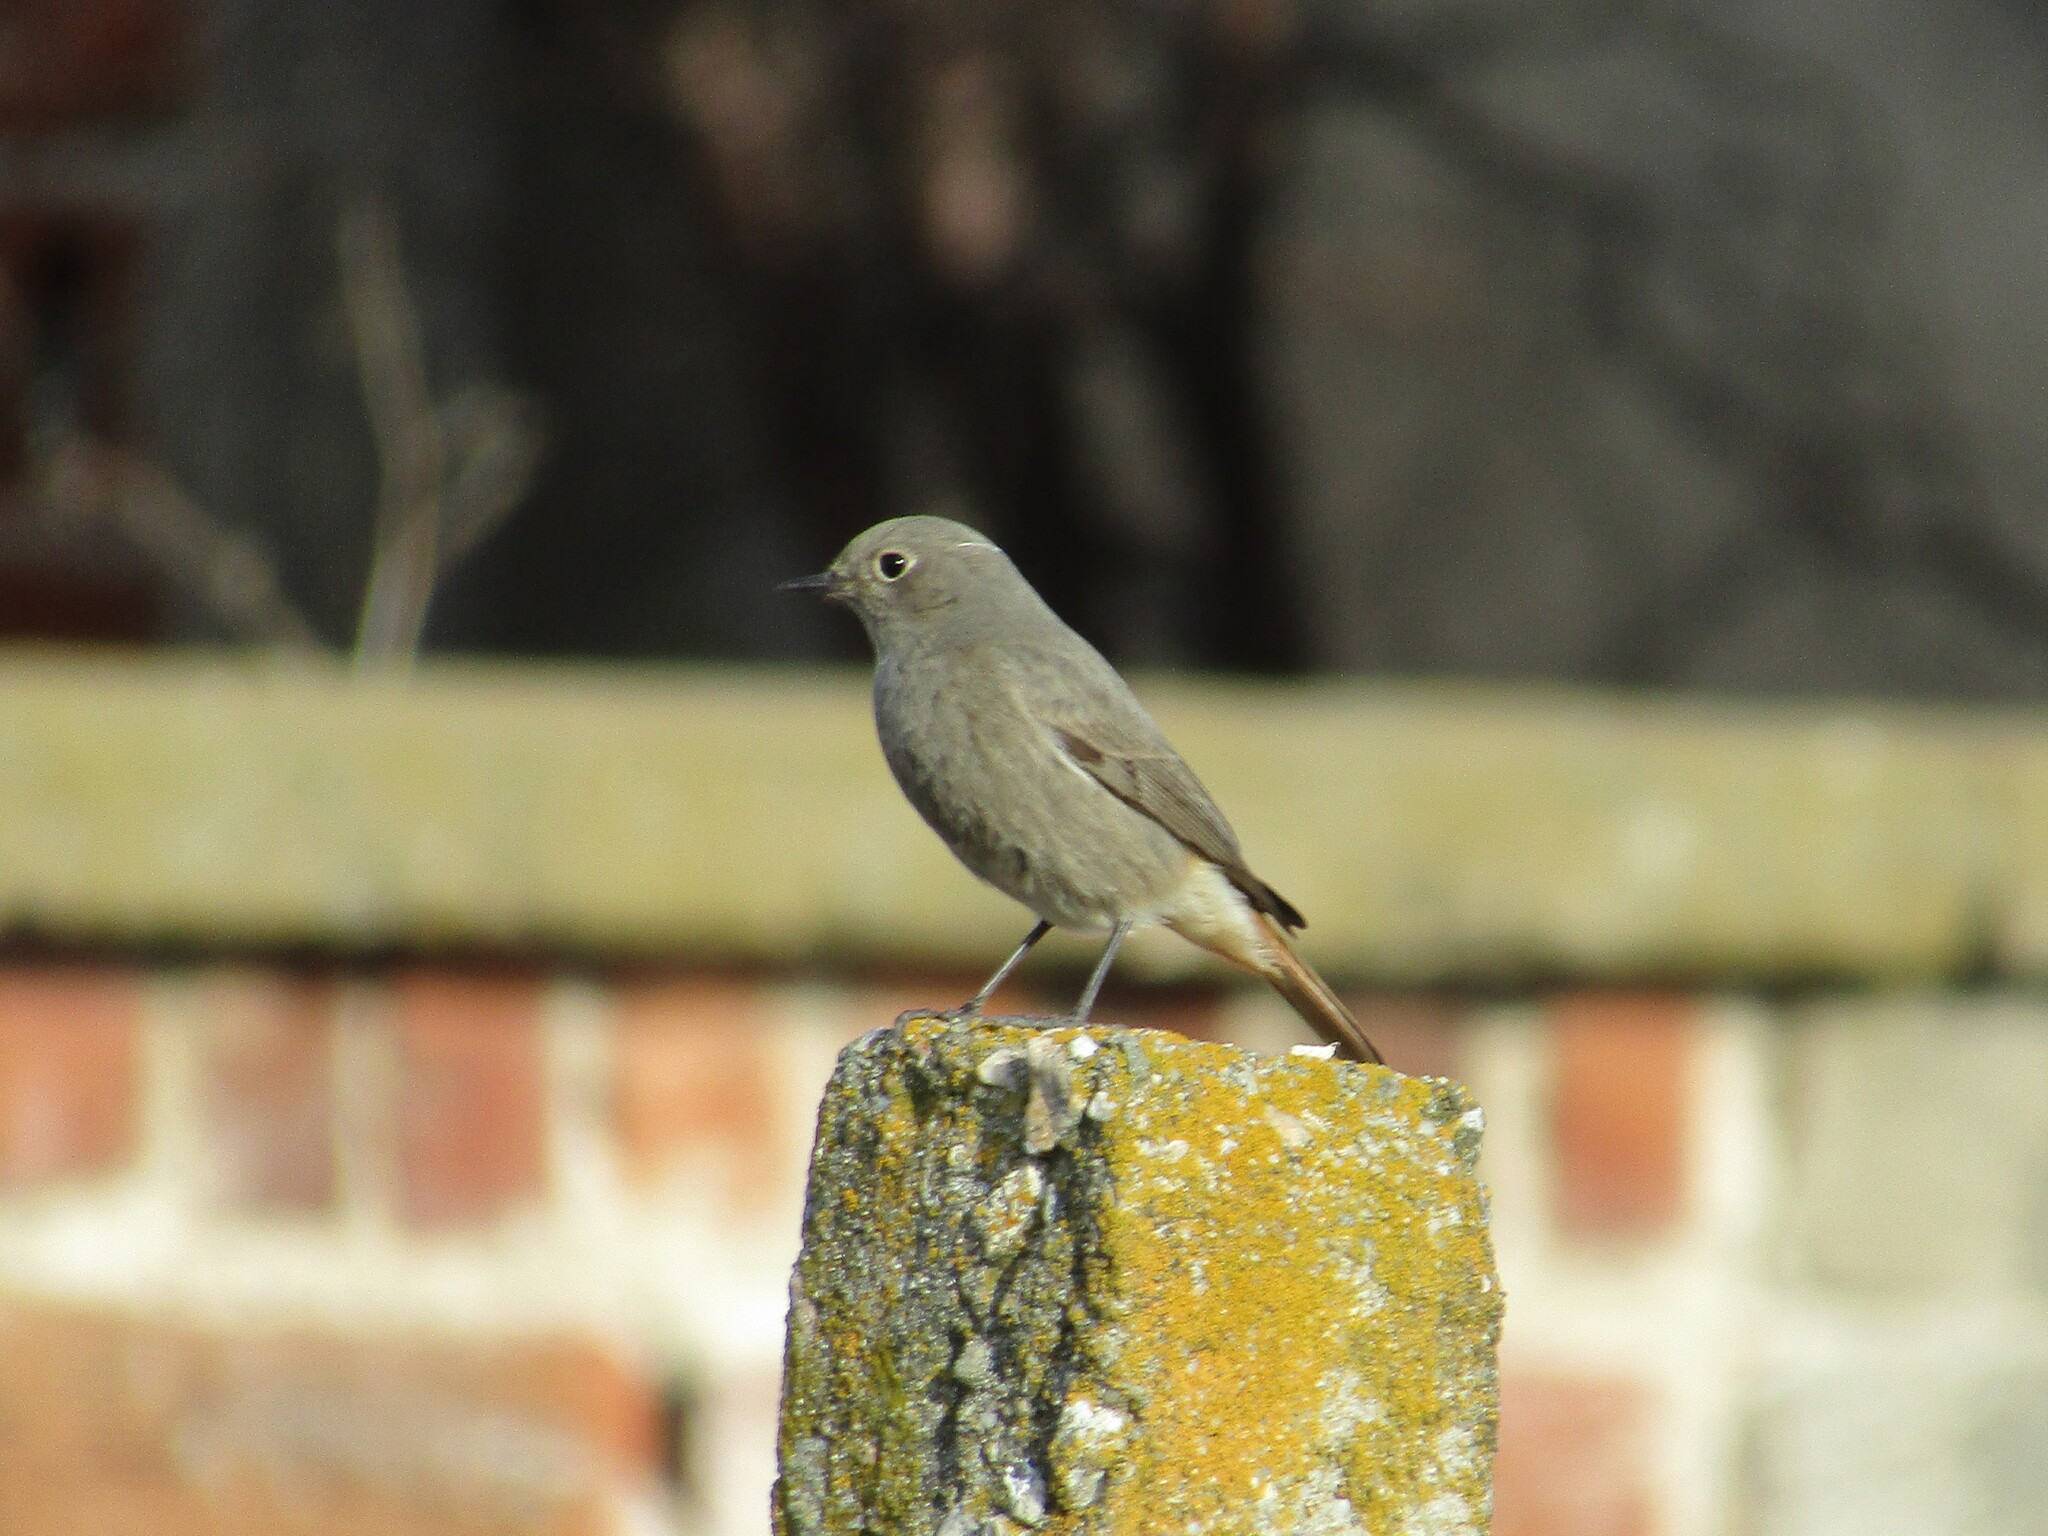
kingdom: Animalia
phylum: Chordata
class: Aves
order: Passeriformes
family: Muscicapidae
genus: Phoenicurus
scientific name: Phoenicurus ochruros
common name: Black redstart
